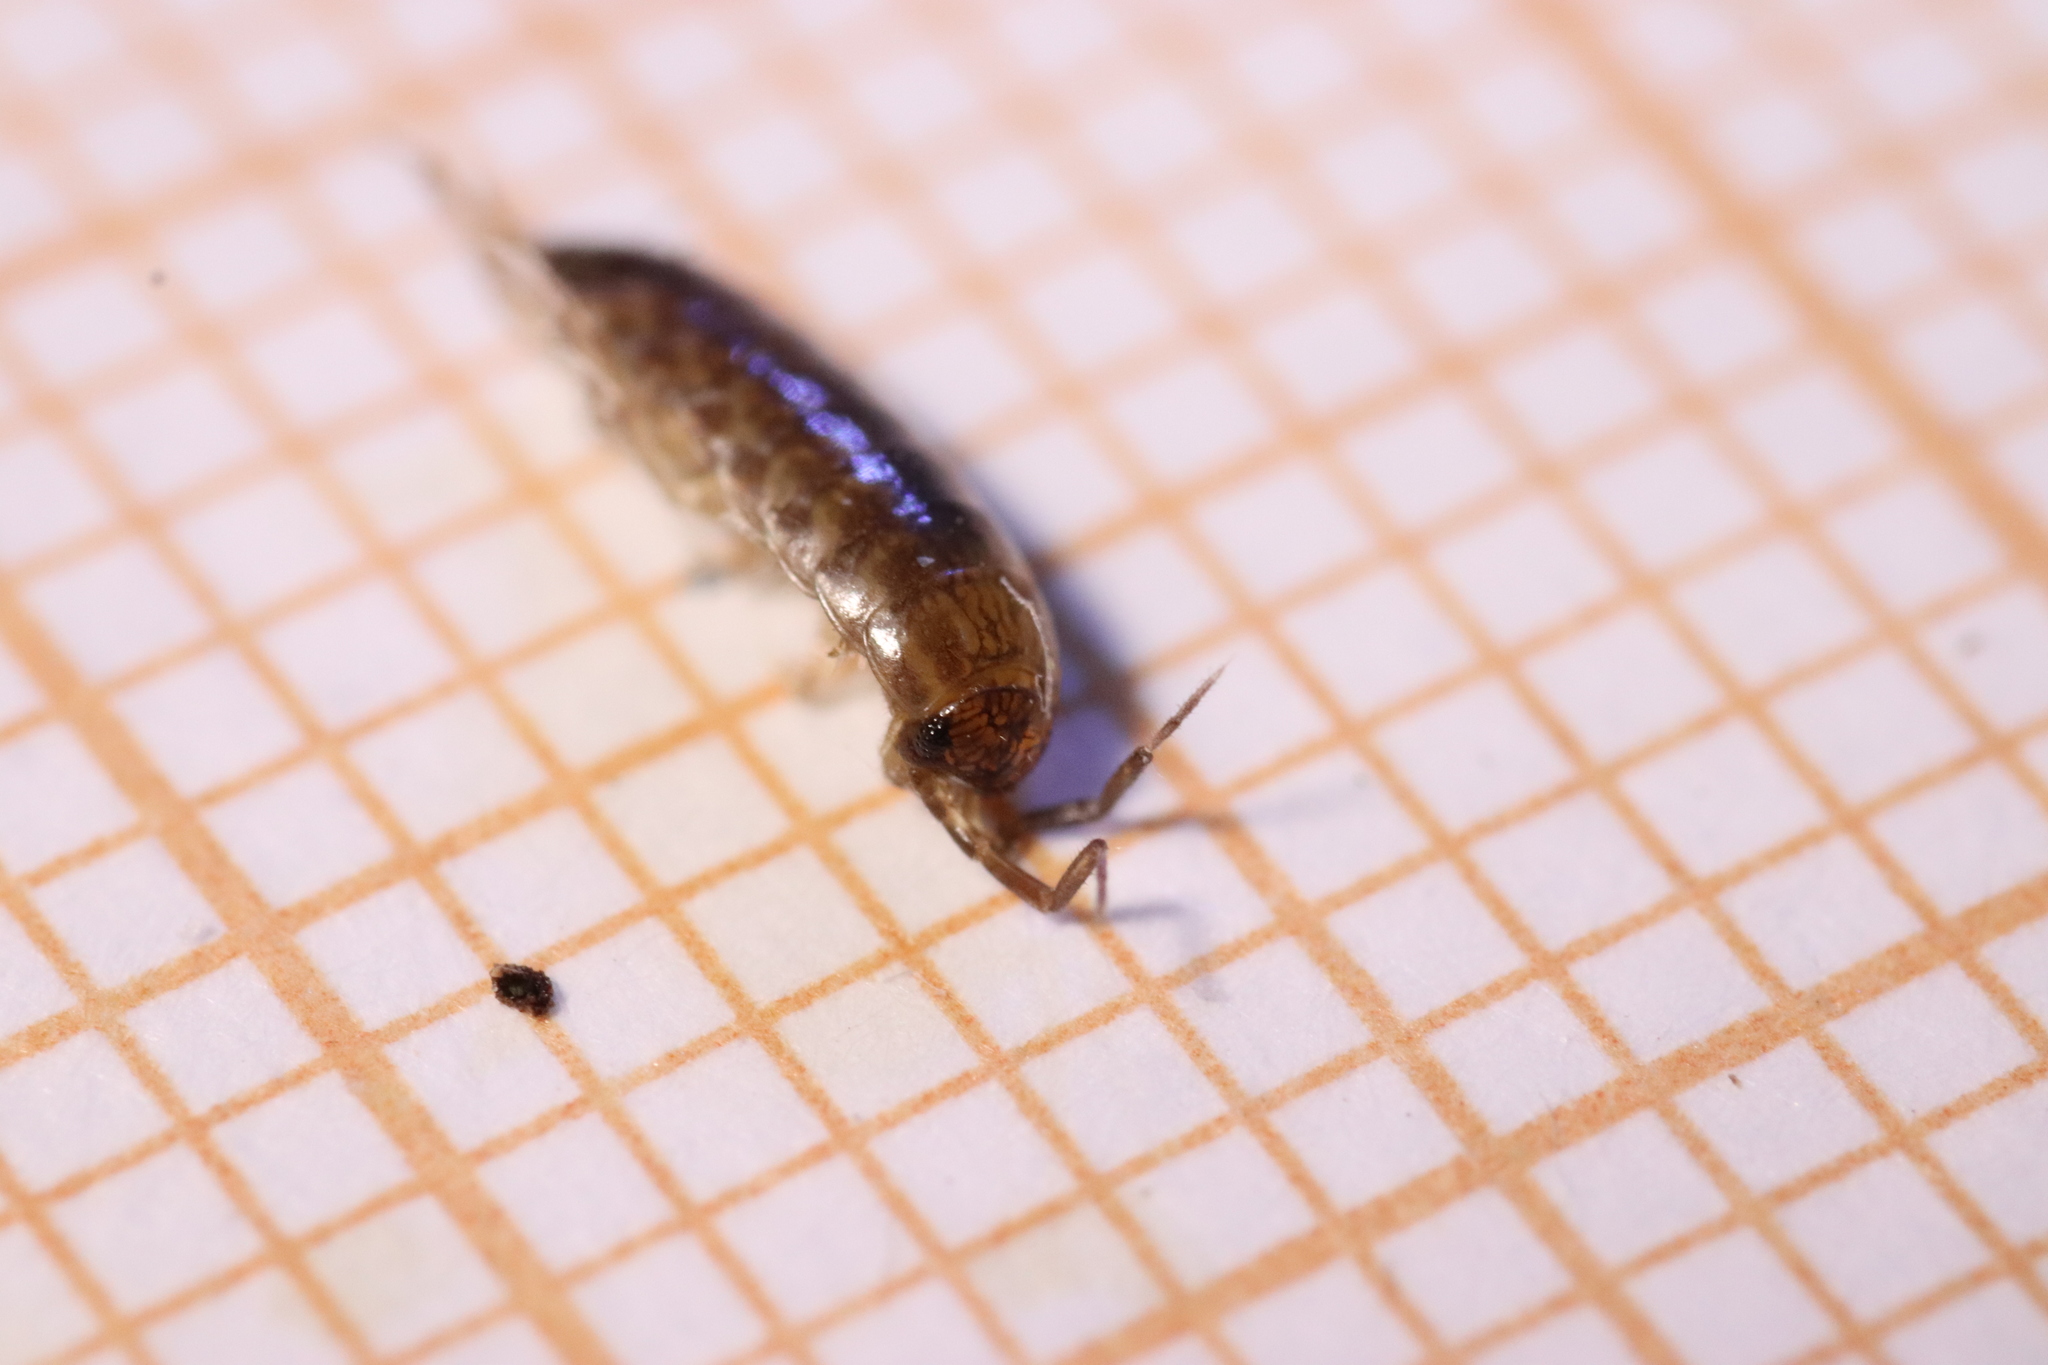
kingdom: Animalia
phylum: Arthropoda
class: Malacostraca
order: Isopoda
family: Philosciidae
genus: Chaetophiloscia
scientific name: Chaetophiloscia sicula
